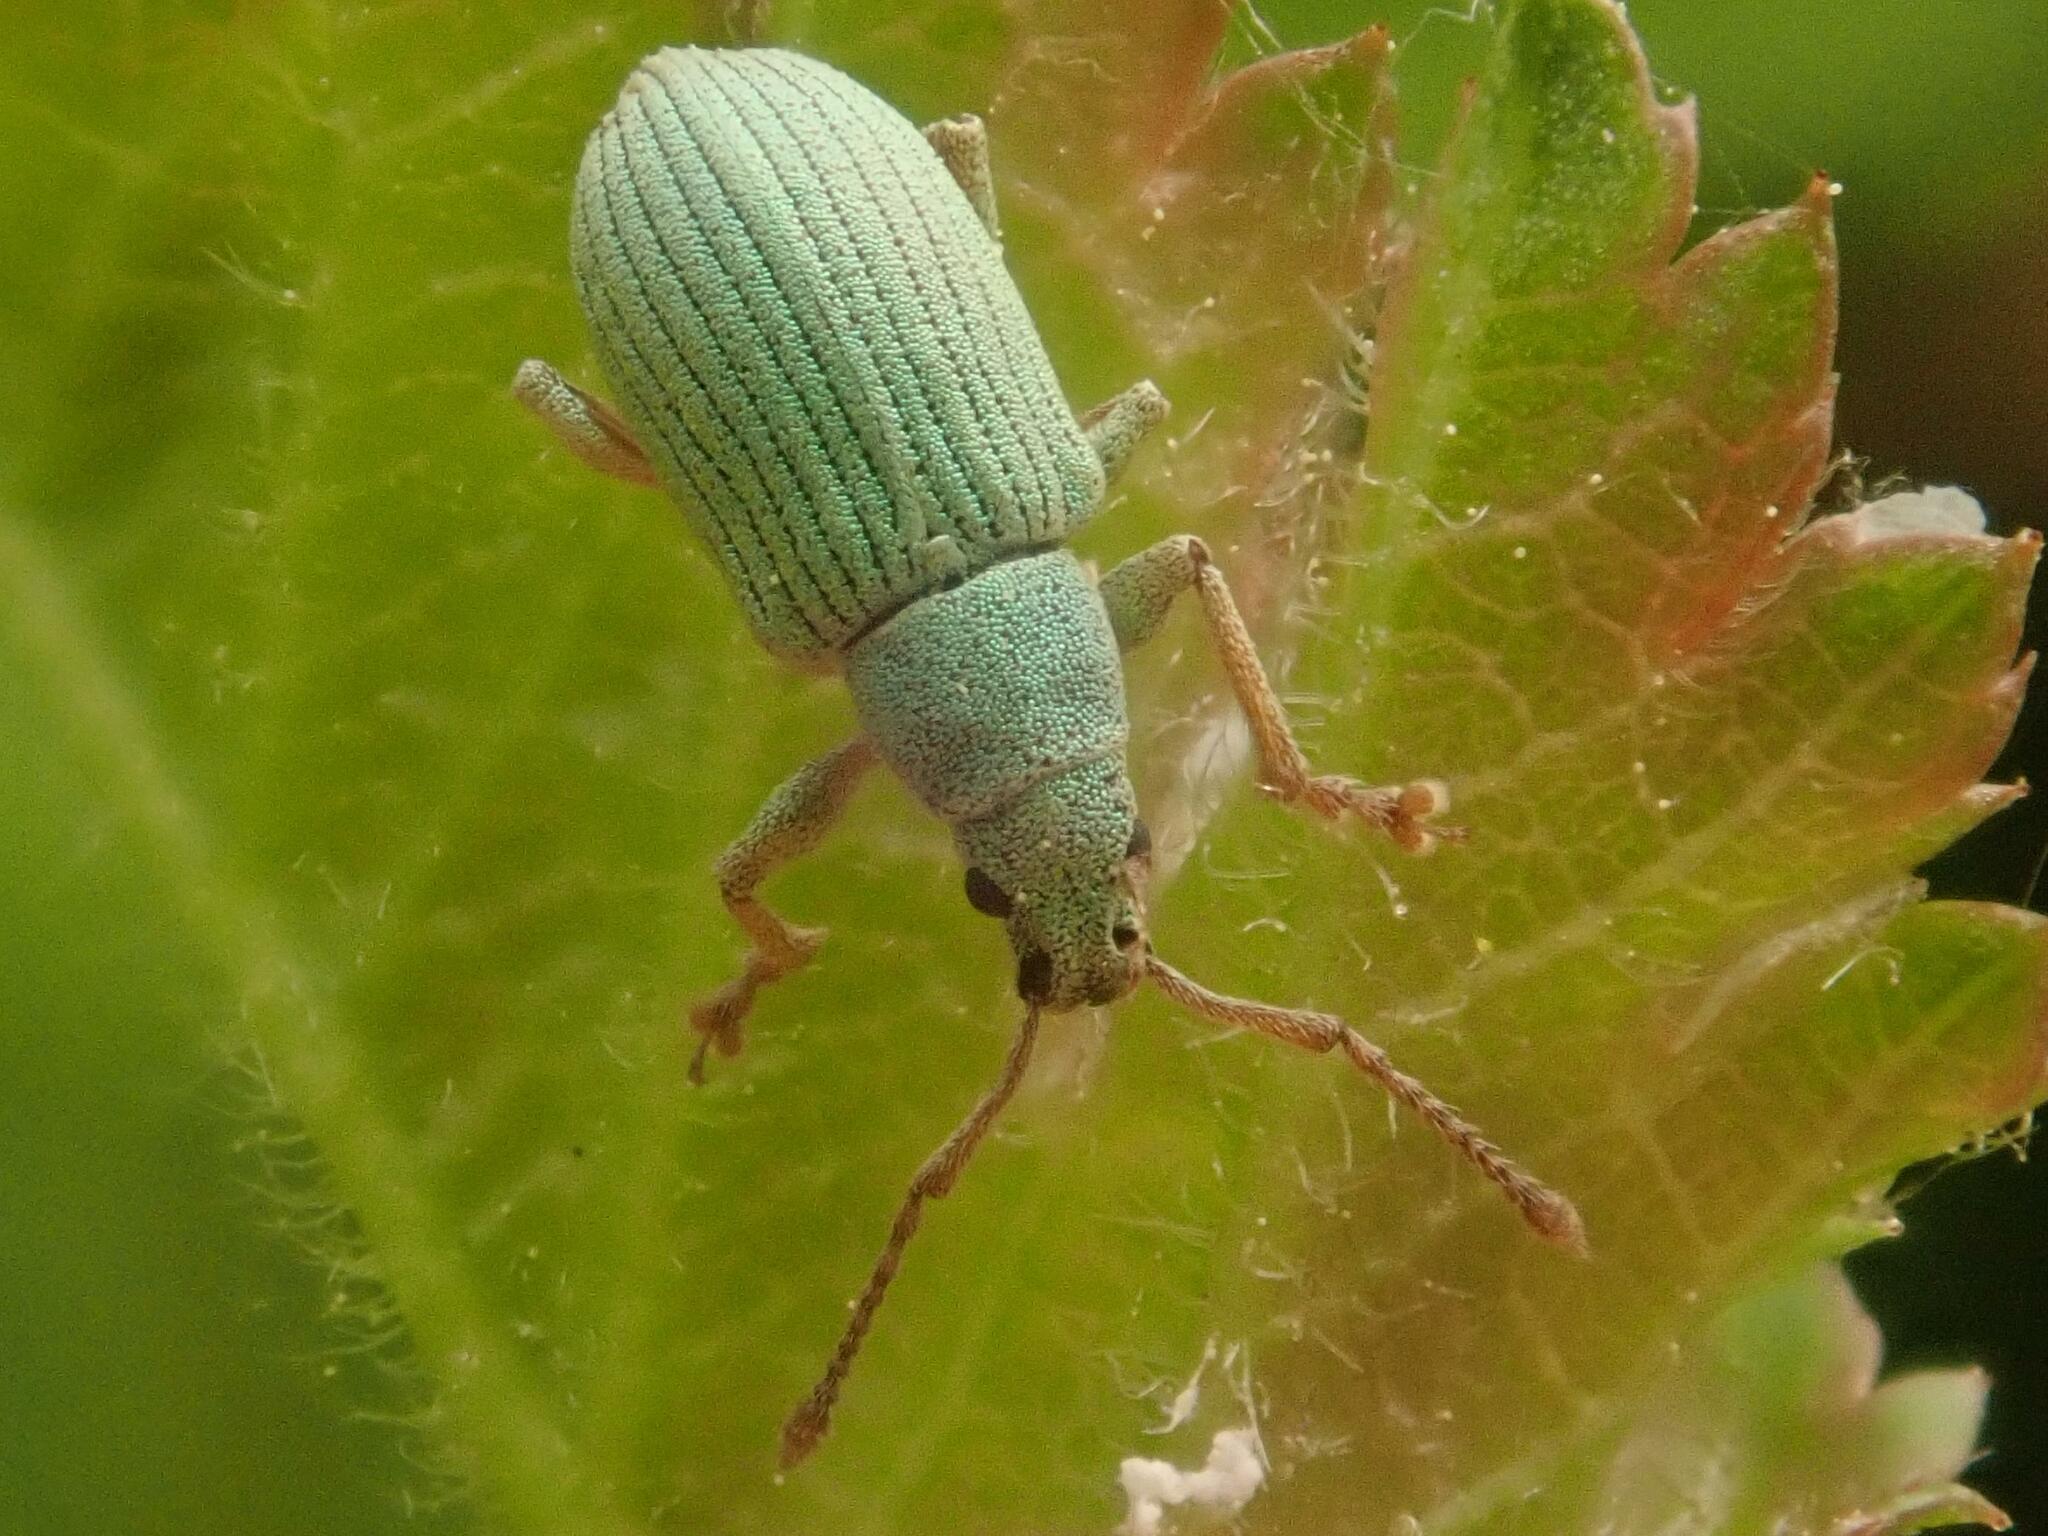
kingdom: Animalia
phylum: Arthropoda
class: Insecta
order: Coleoptera
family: Curculionidae
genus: Phyllobius
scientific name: Phyllobius virideaeris
